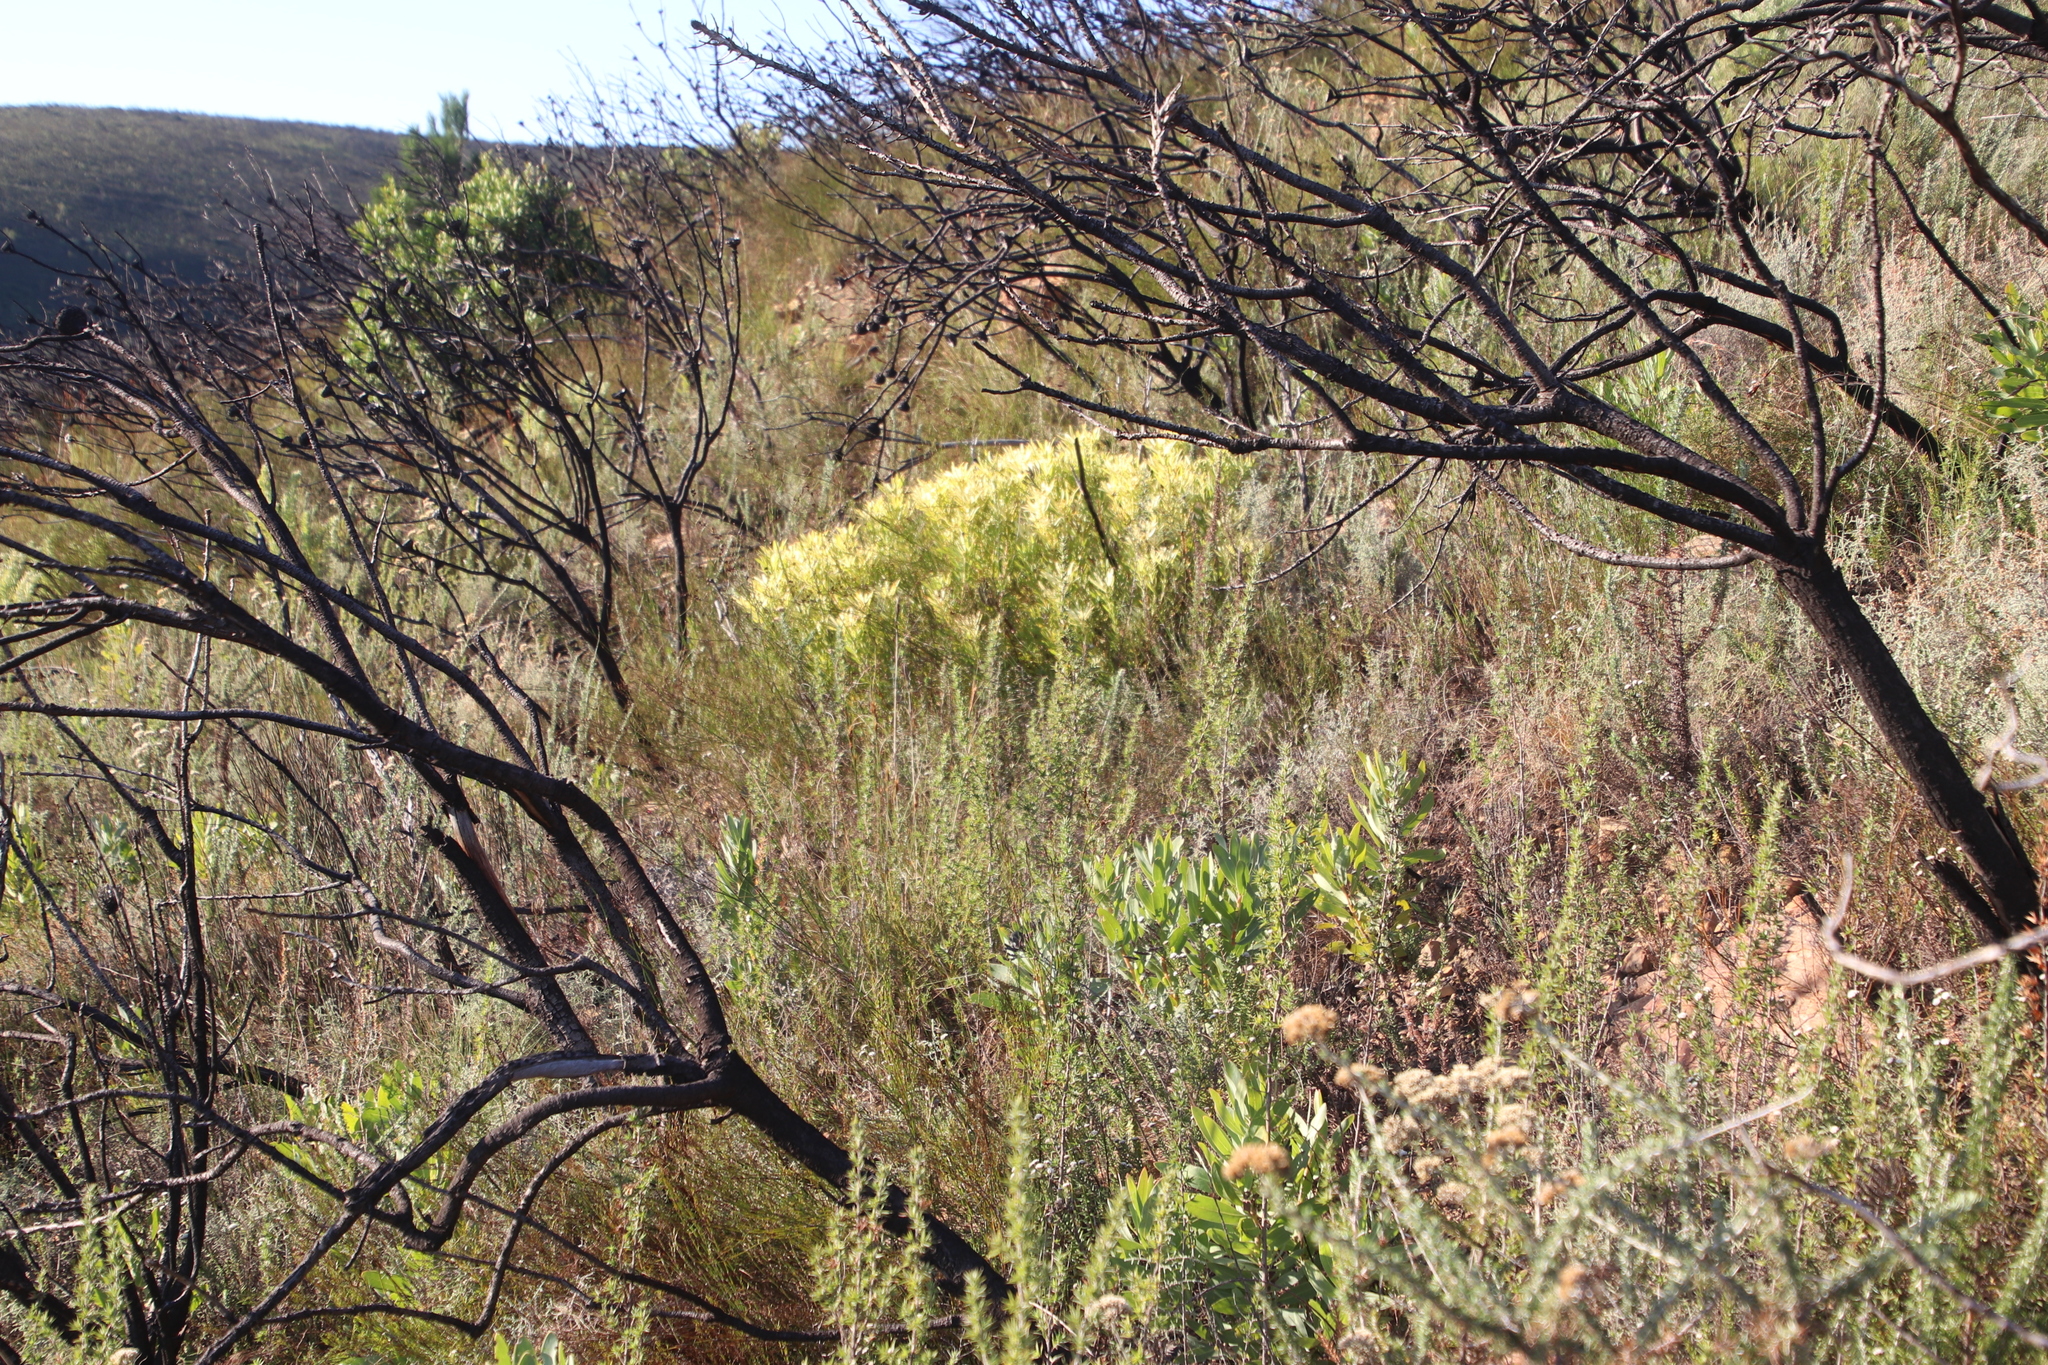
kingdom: Plantae
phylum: Tracheophyta
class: Magnoliopsida
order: Proteales
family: Proteaceae
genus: Leucadendron
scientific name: Leucadendron salignum
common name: Common sunshine conebush
